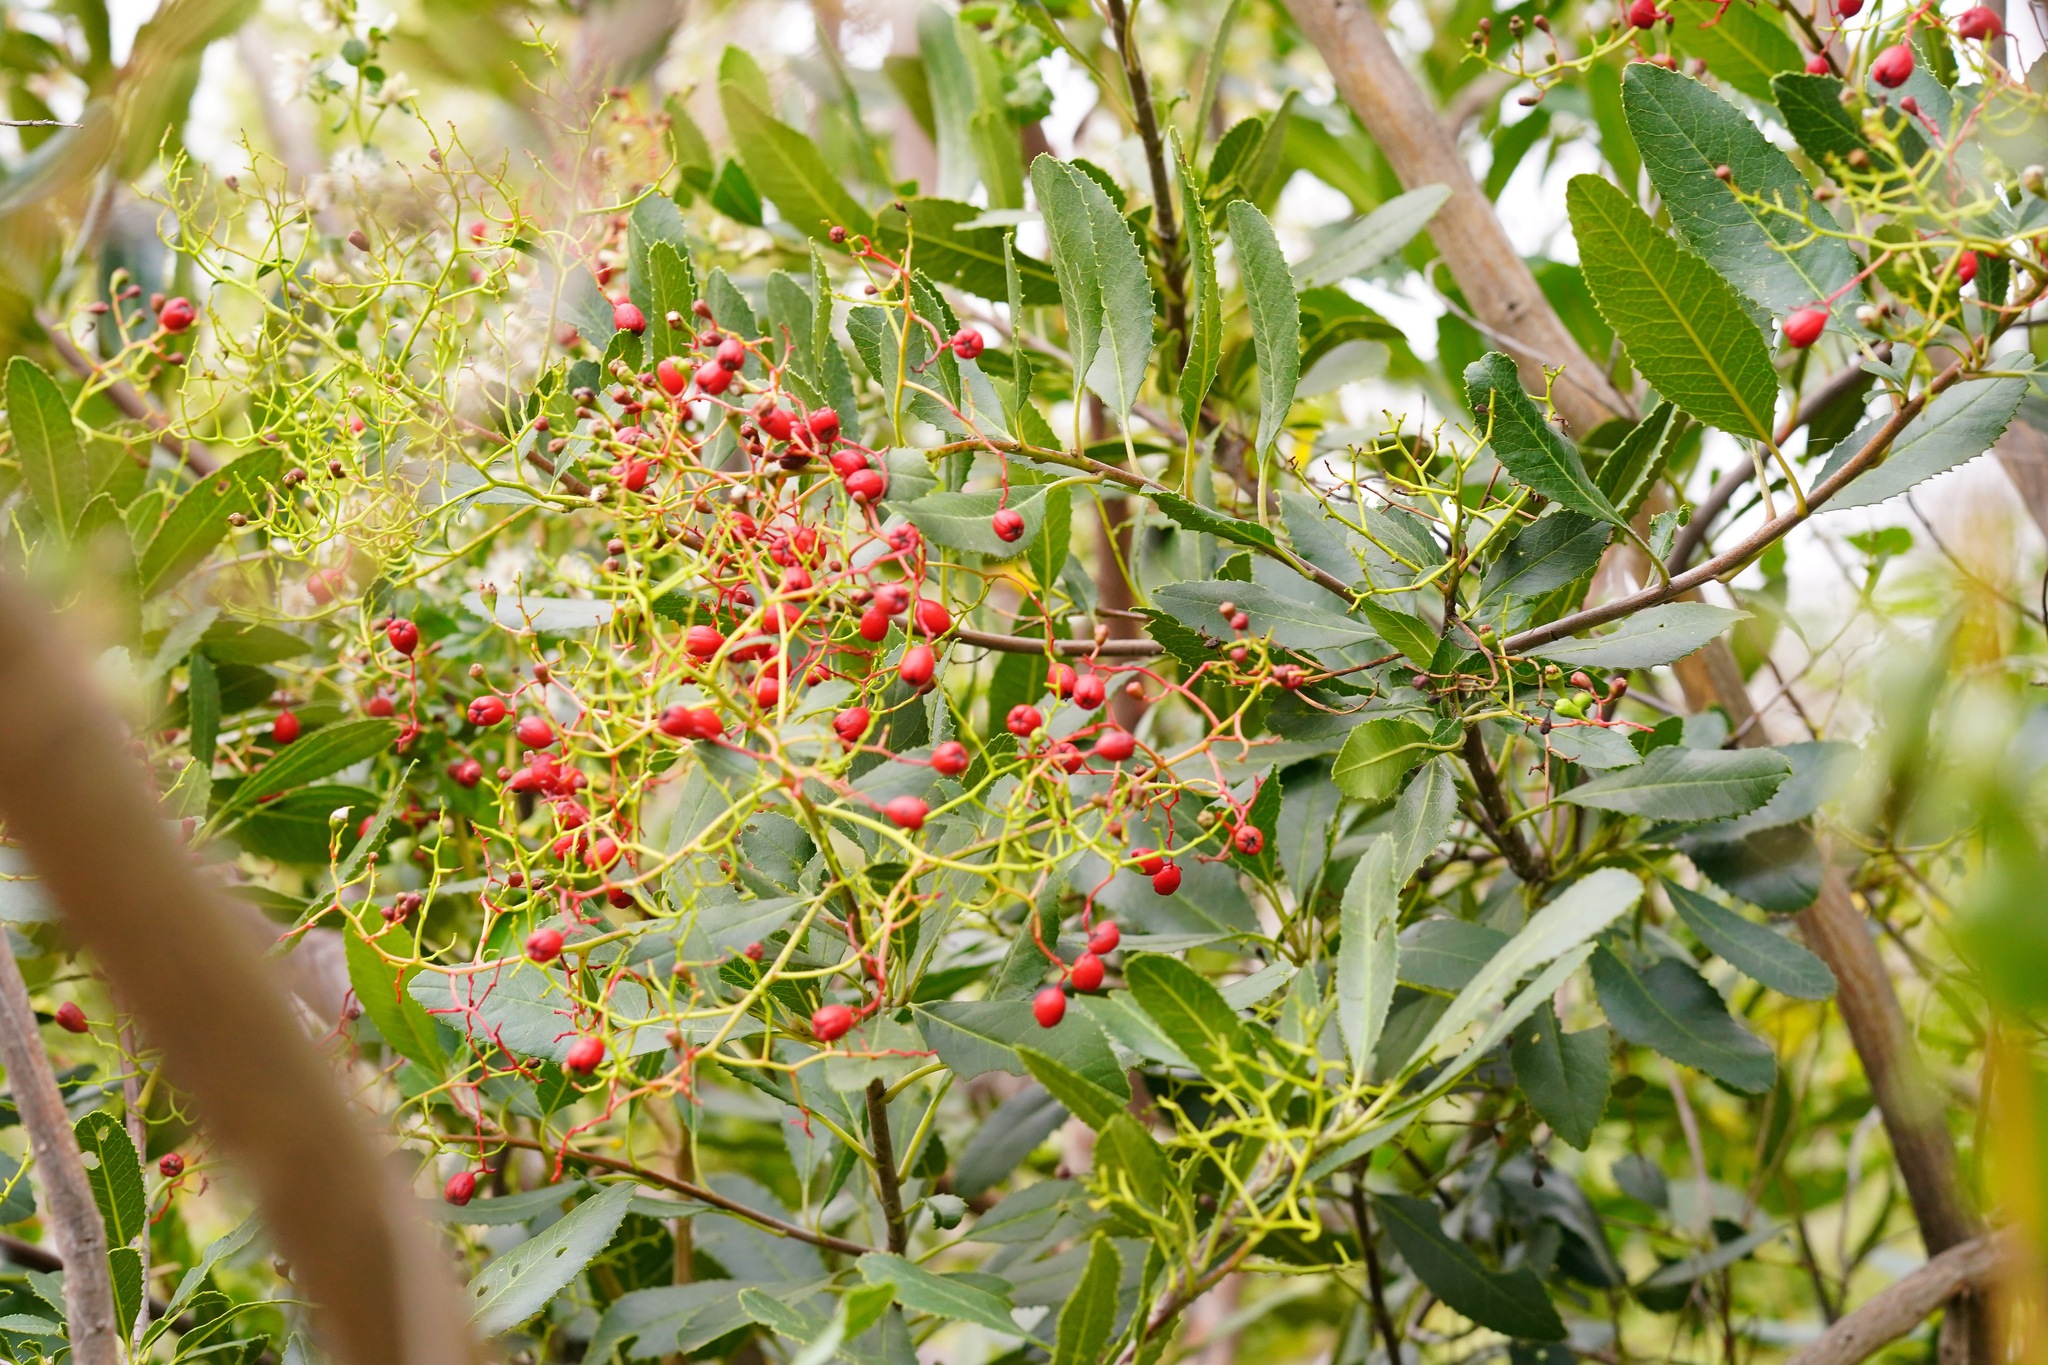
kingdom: Plantae
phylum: Tracheophyta
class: Magnoliopsida
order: Rosales
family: Rosaceae
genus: Heteromeles
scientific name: Heteromeles arbutifolia
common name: California-holly
